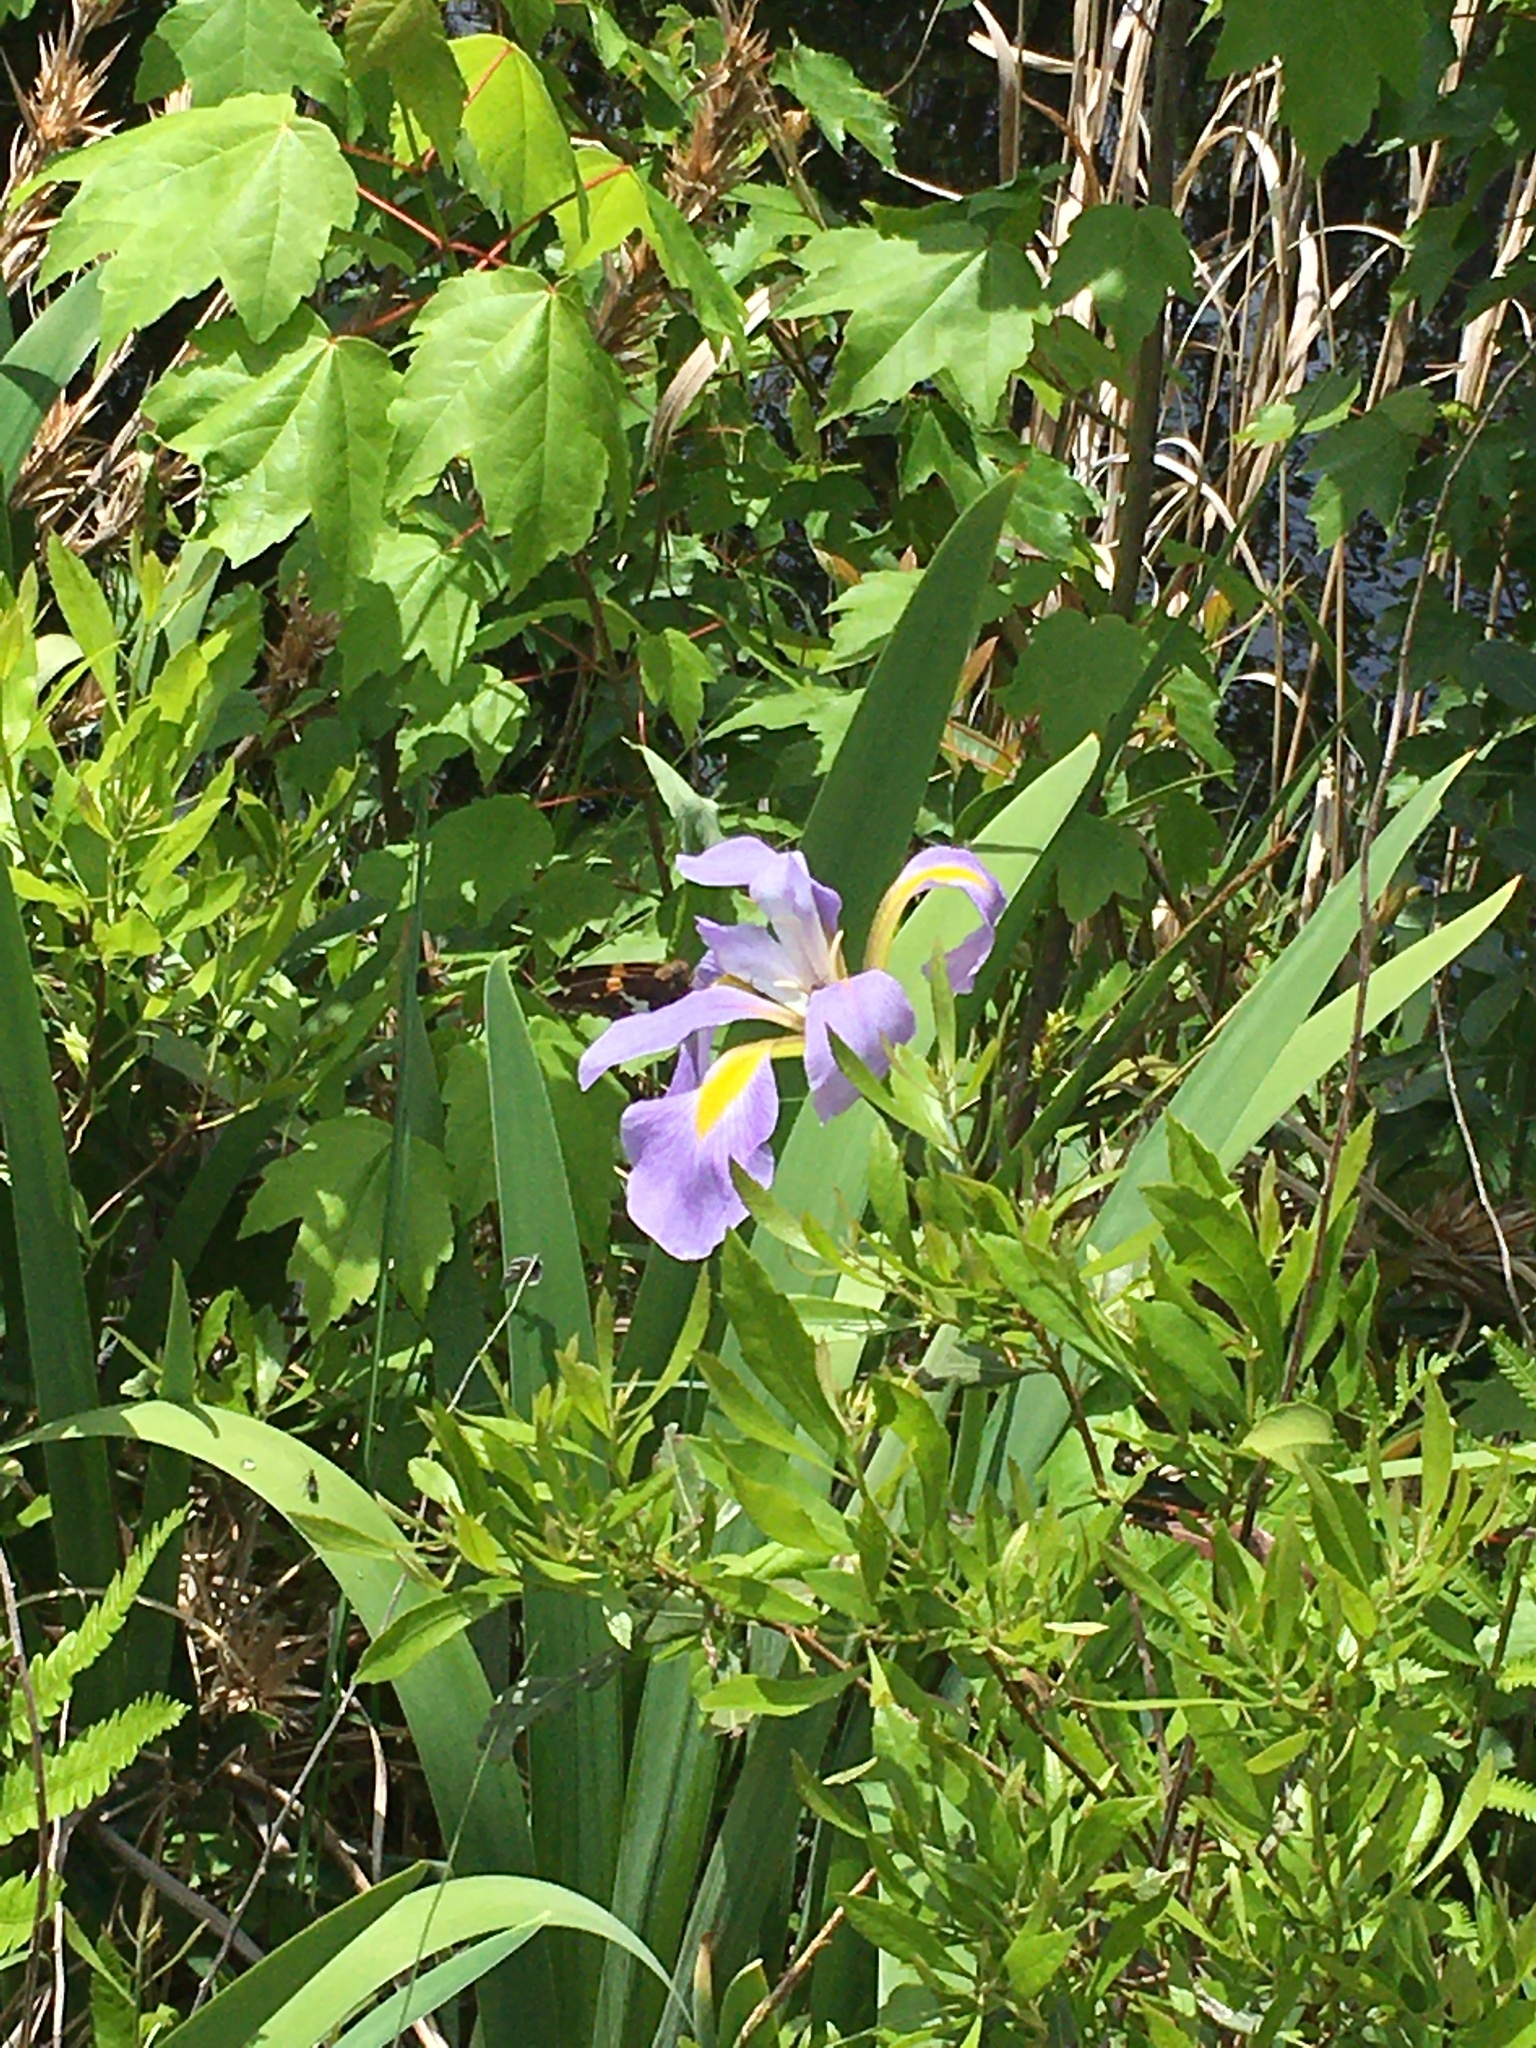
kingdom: Plantae
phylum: Tracheophyta
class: Liliopsida
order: Asparagales
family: Iridaceae
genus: Iris
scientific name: Iris virginica
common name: Southern blue flag
